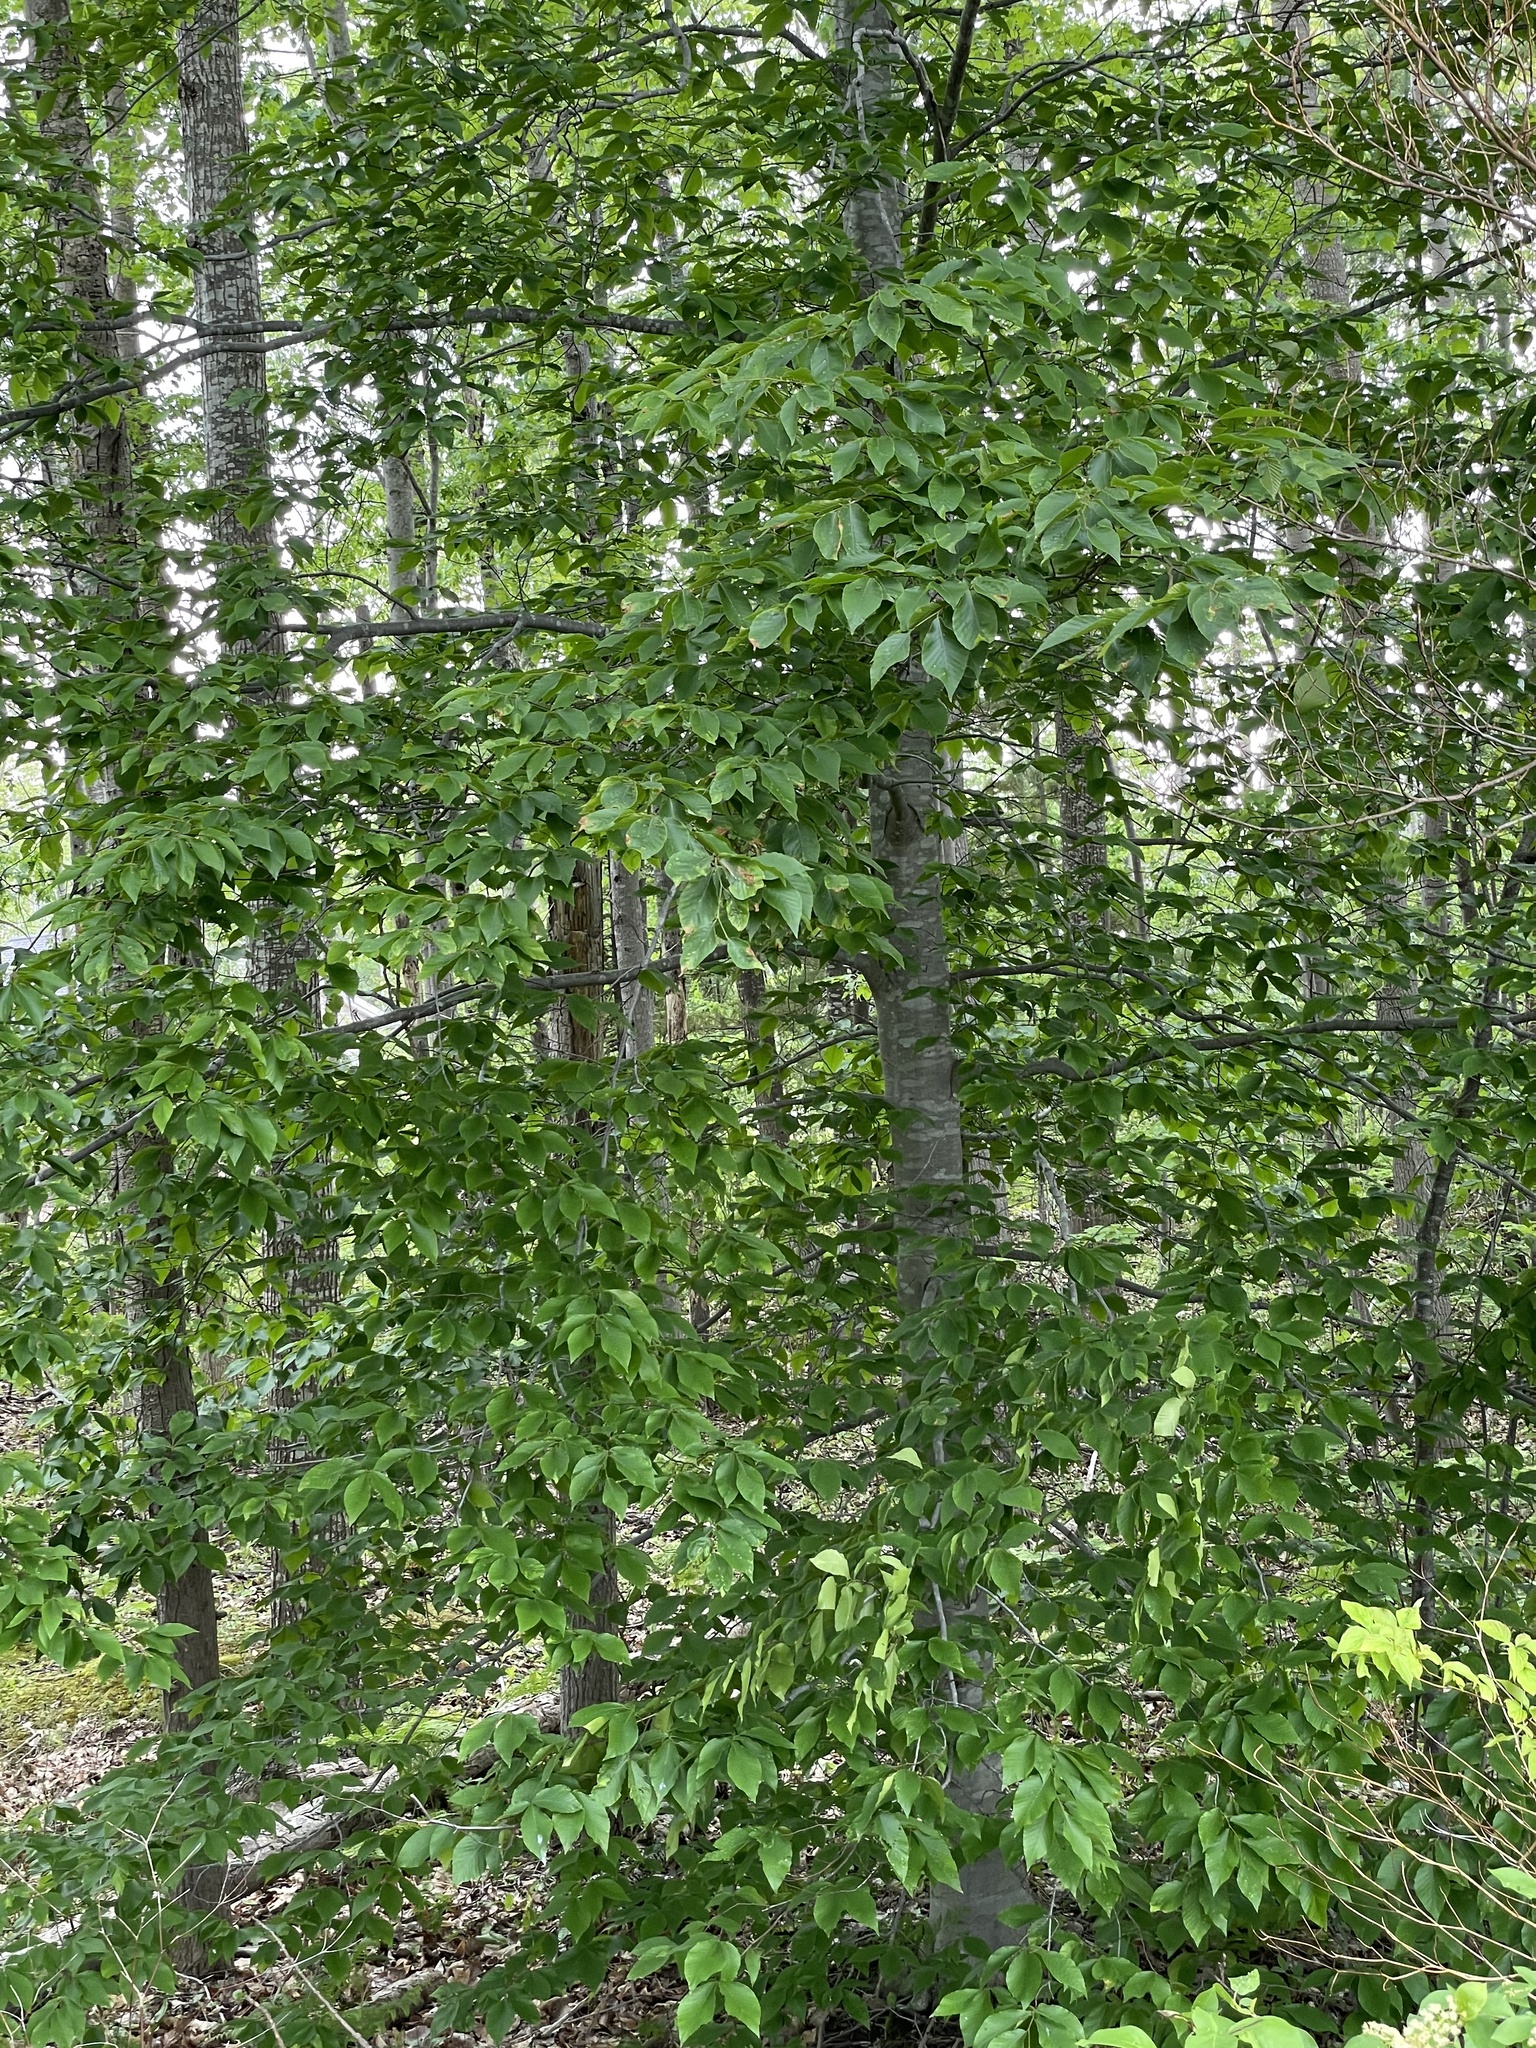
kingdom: Plantae
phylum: Tracheophyta
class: Magnoliopsida
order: Fagales
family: Fagaceae
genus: Fagus
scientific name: Fagus grandifolia
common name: American beech
